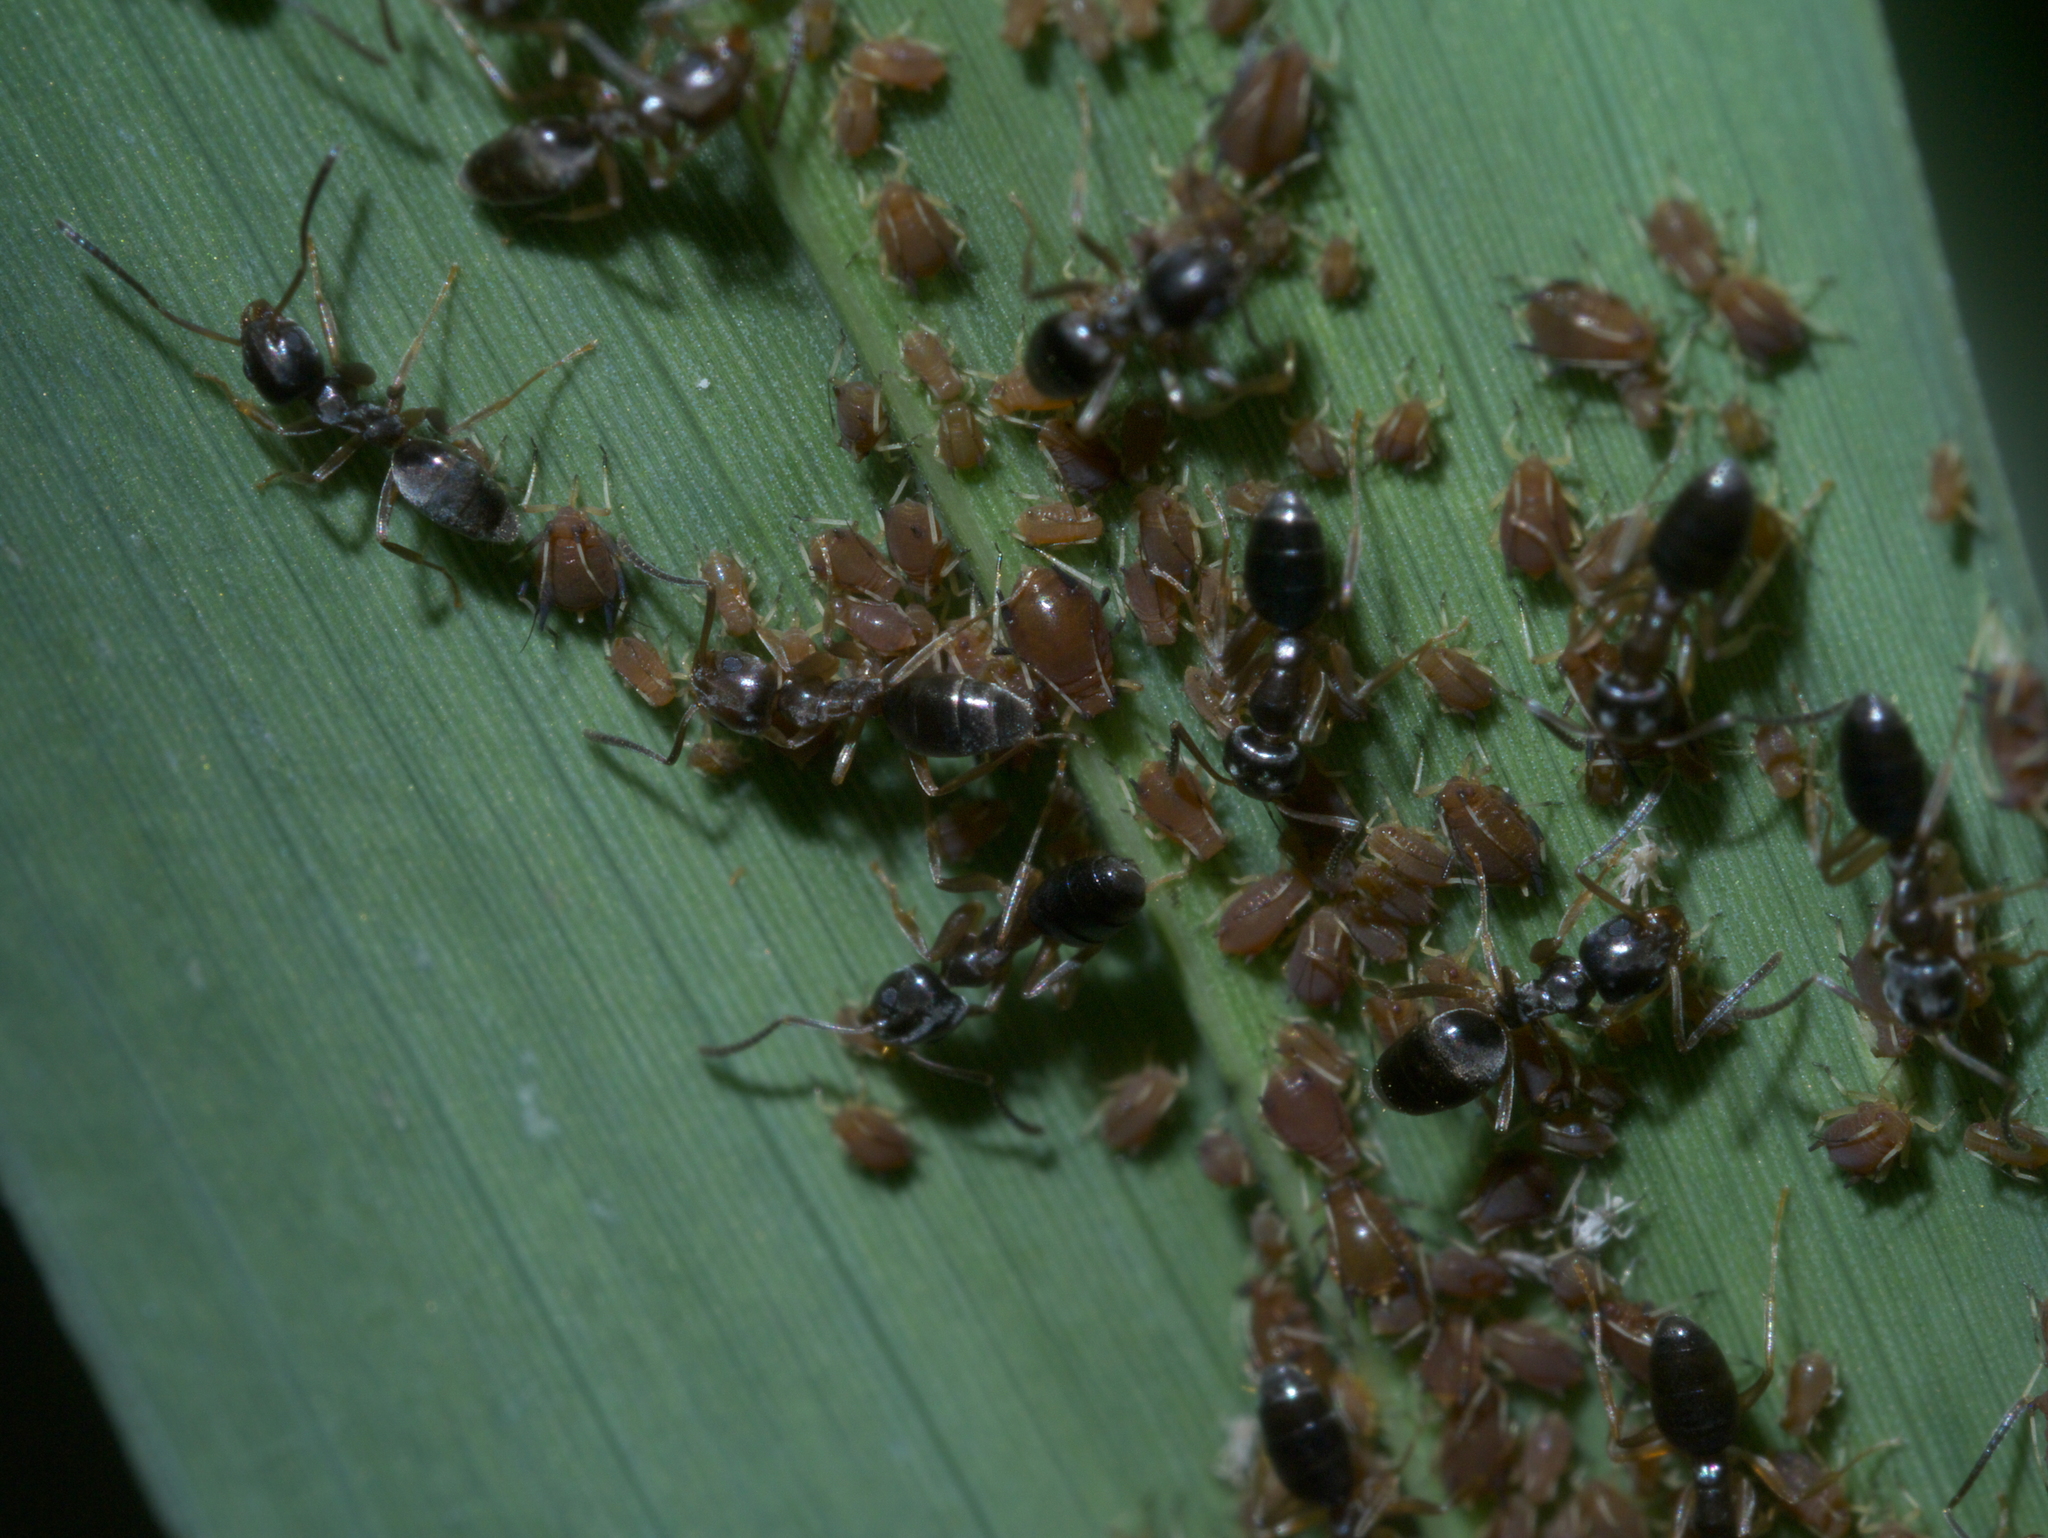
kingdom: Animalia
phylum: Arthropoda
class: Insecta
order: Hymenoptera
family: Formicidae
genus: Tapinoma
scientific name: Tapinoma sessile
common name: Odorous house ant
